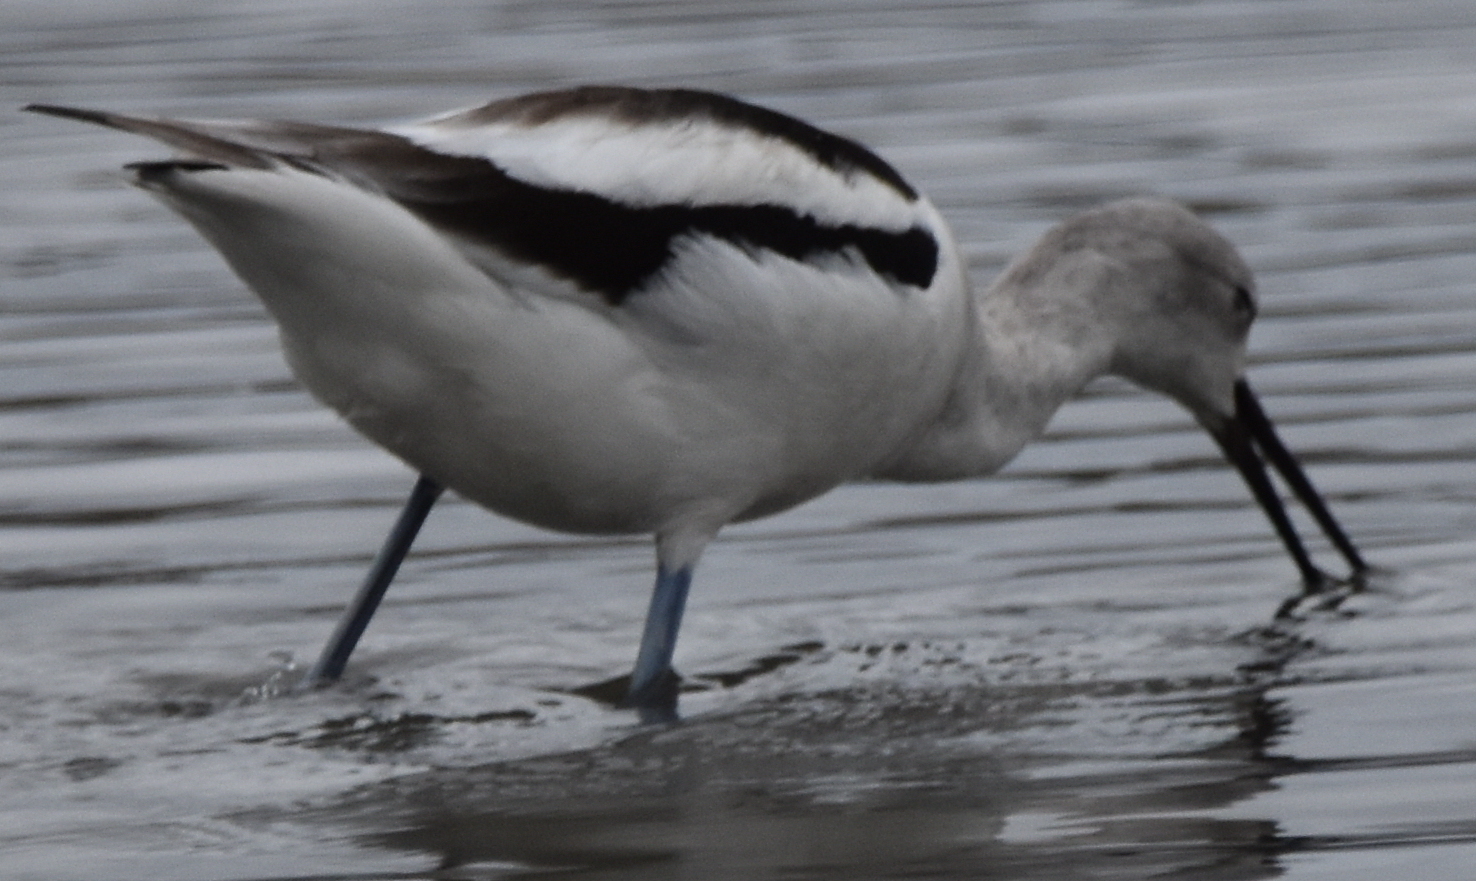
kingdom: Animalia
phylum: Chordata
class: Aves
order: Charadriiformes
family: Recurvirostridae
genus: Recurvirostra
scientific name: Recurvirostra americana
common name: American avocet
